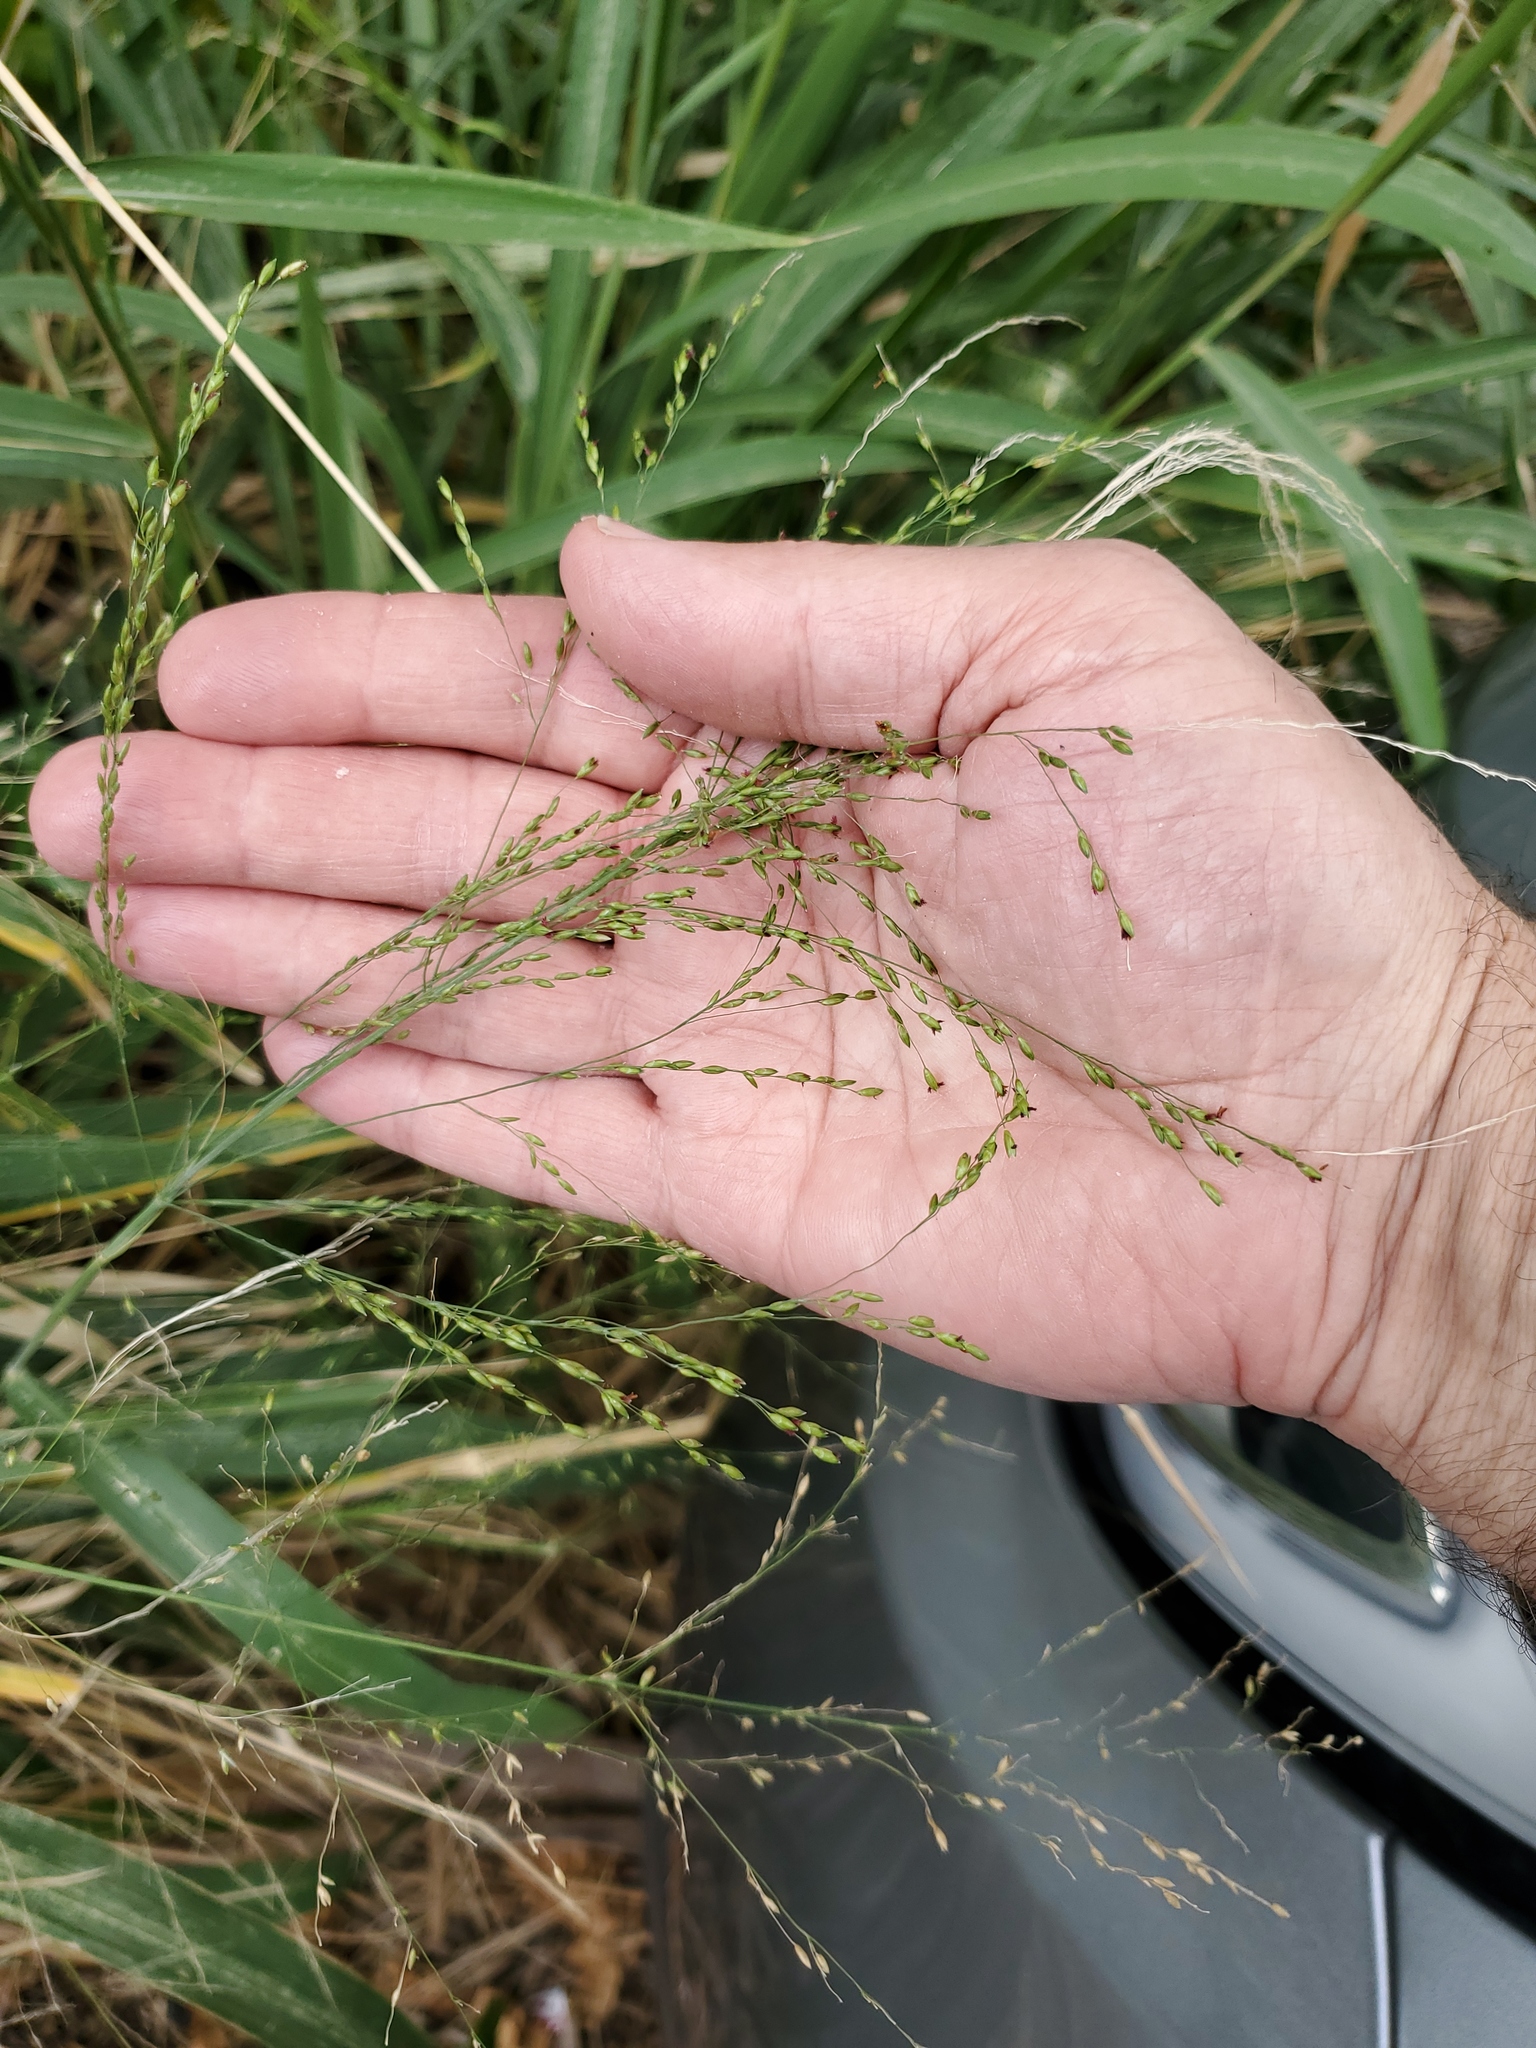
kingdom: Plantae
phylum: Tracheophyta
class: Liliopsida
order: Poales
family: Poaceae
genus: Megathyrsus
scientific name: Megathyrsus maximus
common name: Guineagrass
